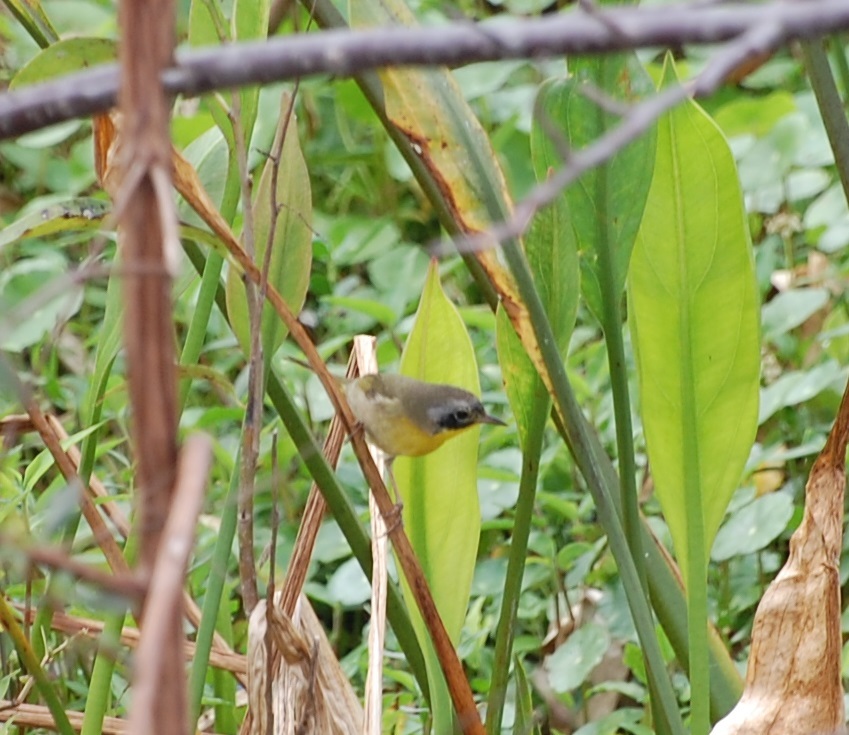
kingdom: Animalia
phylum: Chordata
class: Aves
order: Passeriformes
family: Parulidae
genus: Geothlypis
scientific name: Geothlypis trichas
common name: Common yellowthroat
